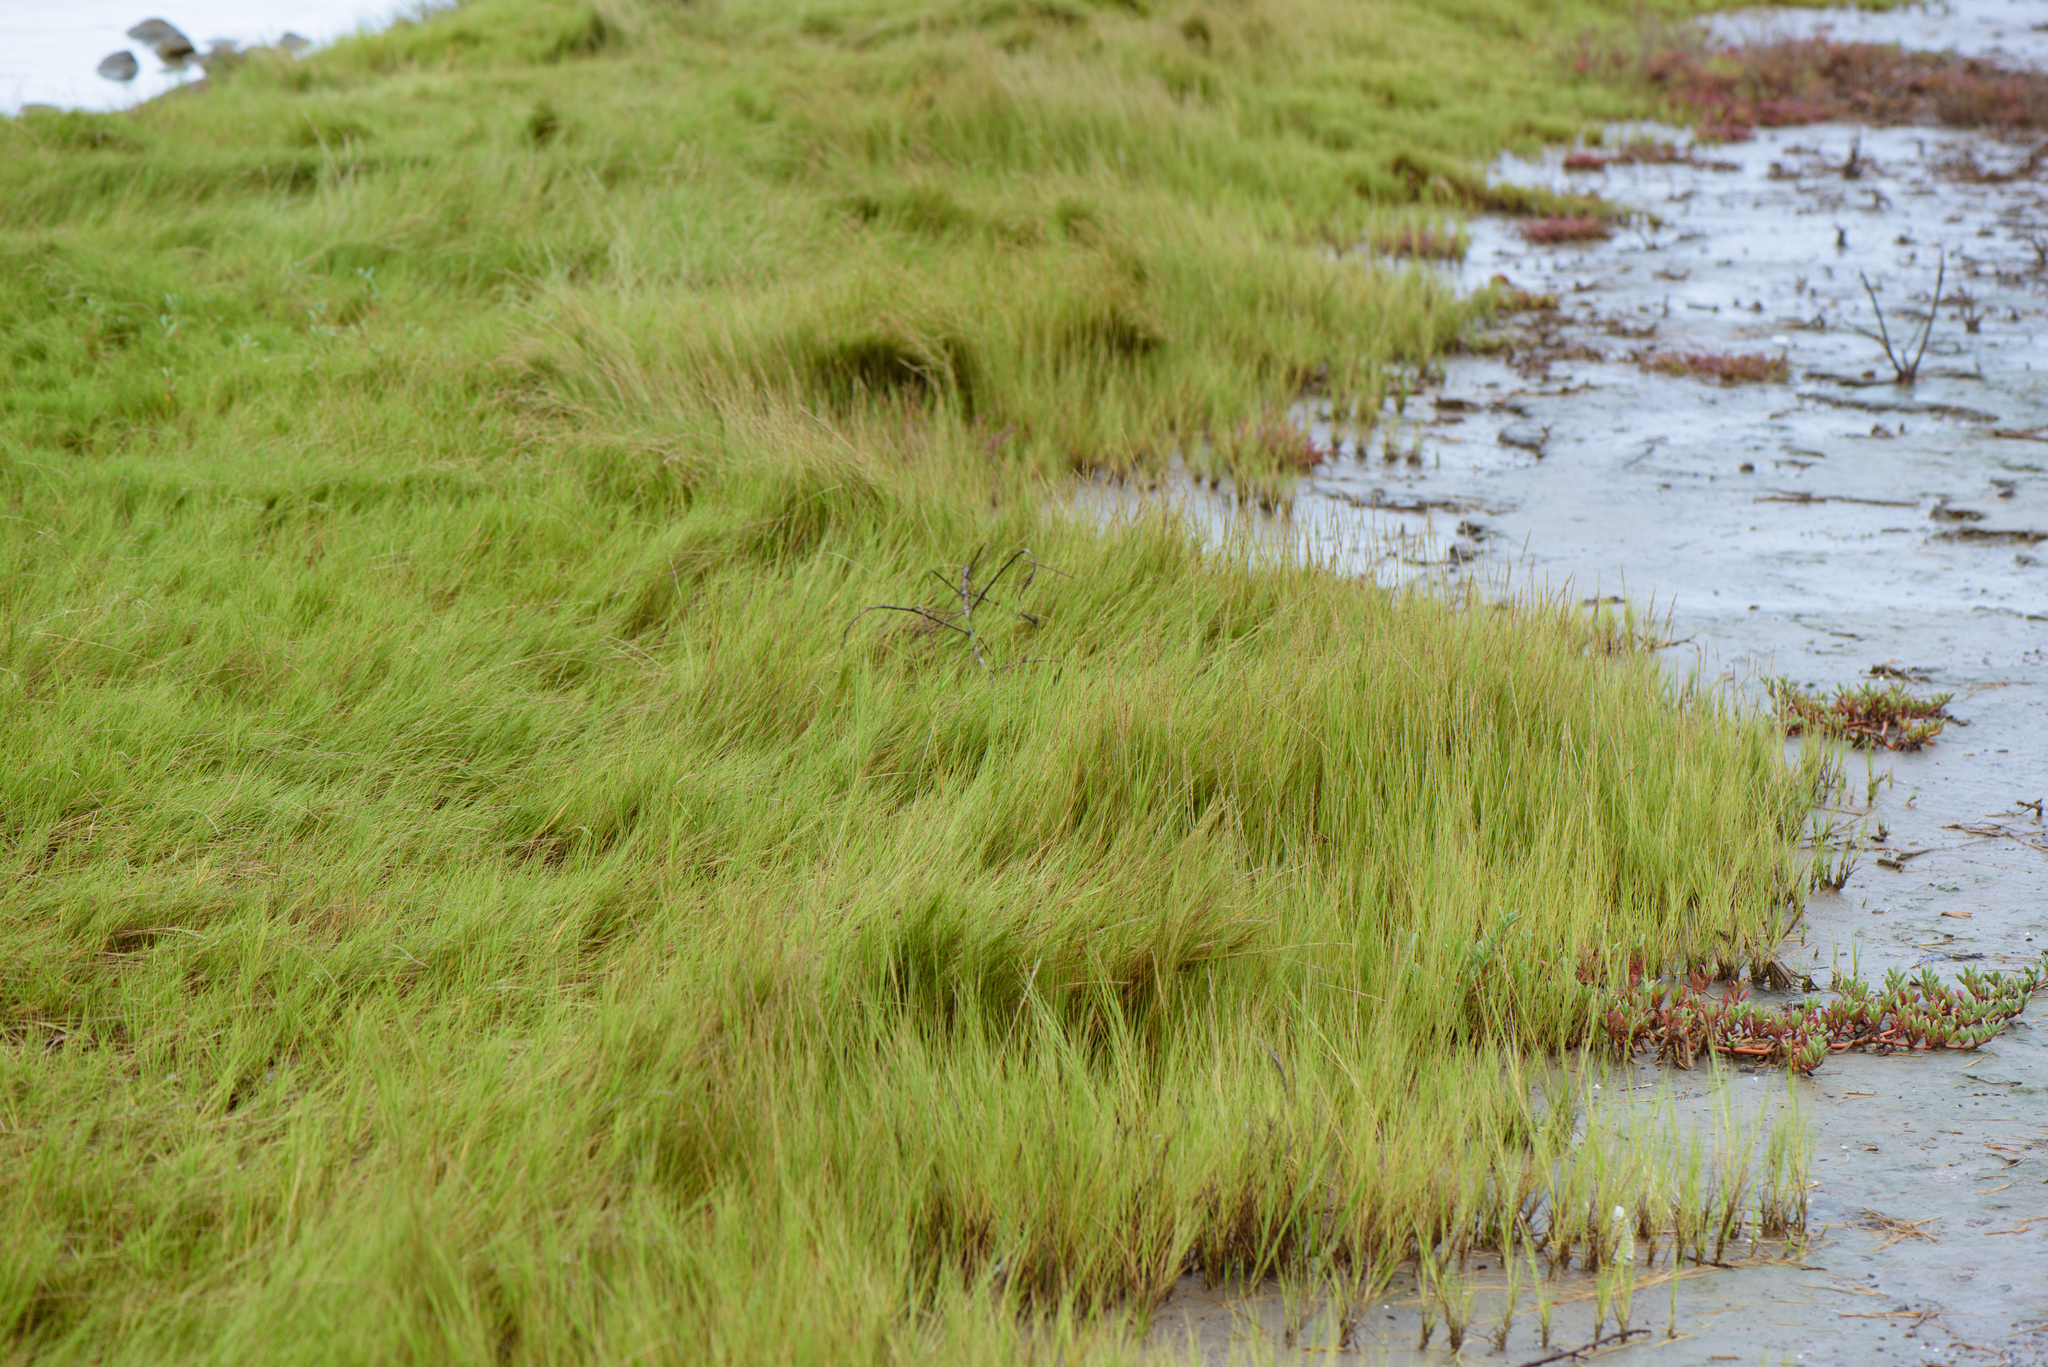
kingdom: Plantae
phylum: Tracheophyta
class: Liliopsida
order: Poales
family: Poaceae
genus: Sporobolus
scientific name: Sporobolus virginicus
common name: Beach dropseed
